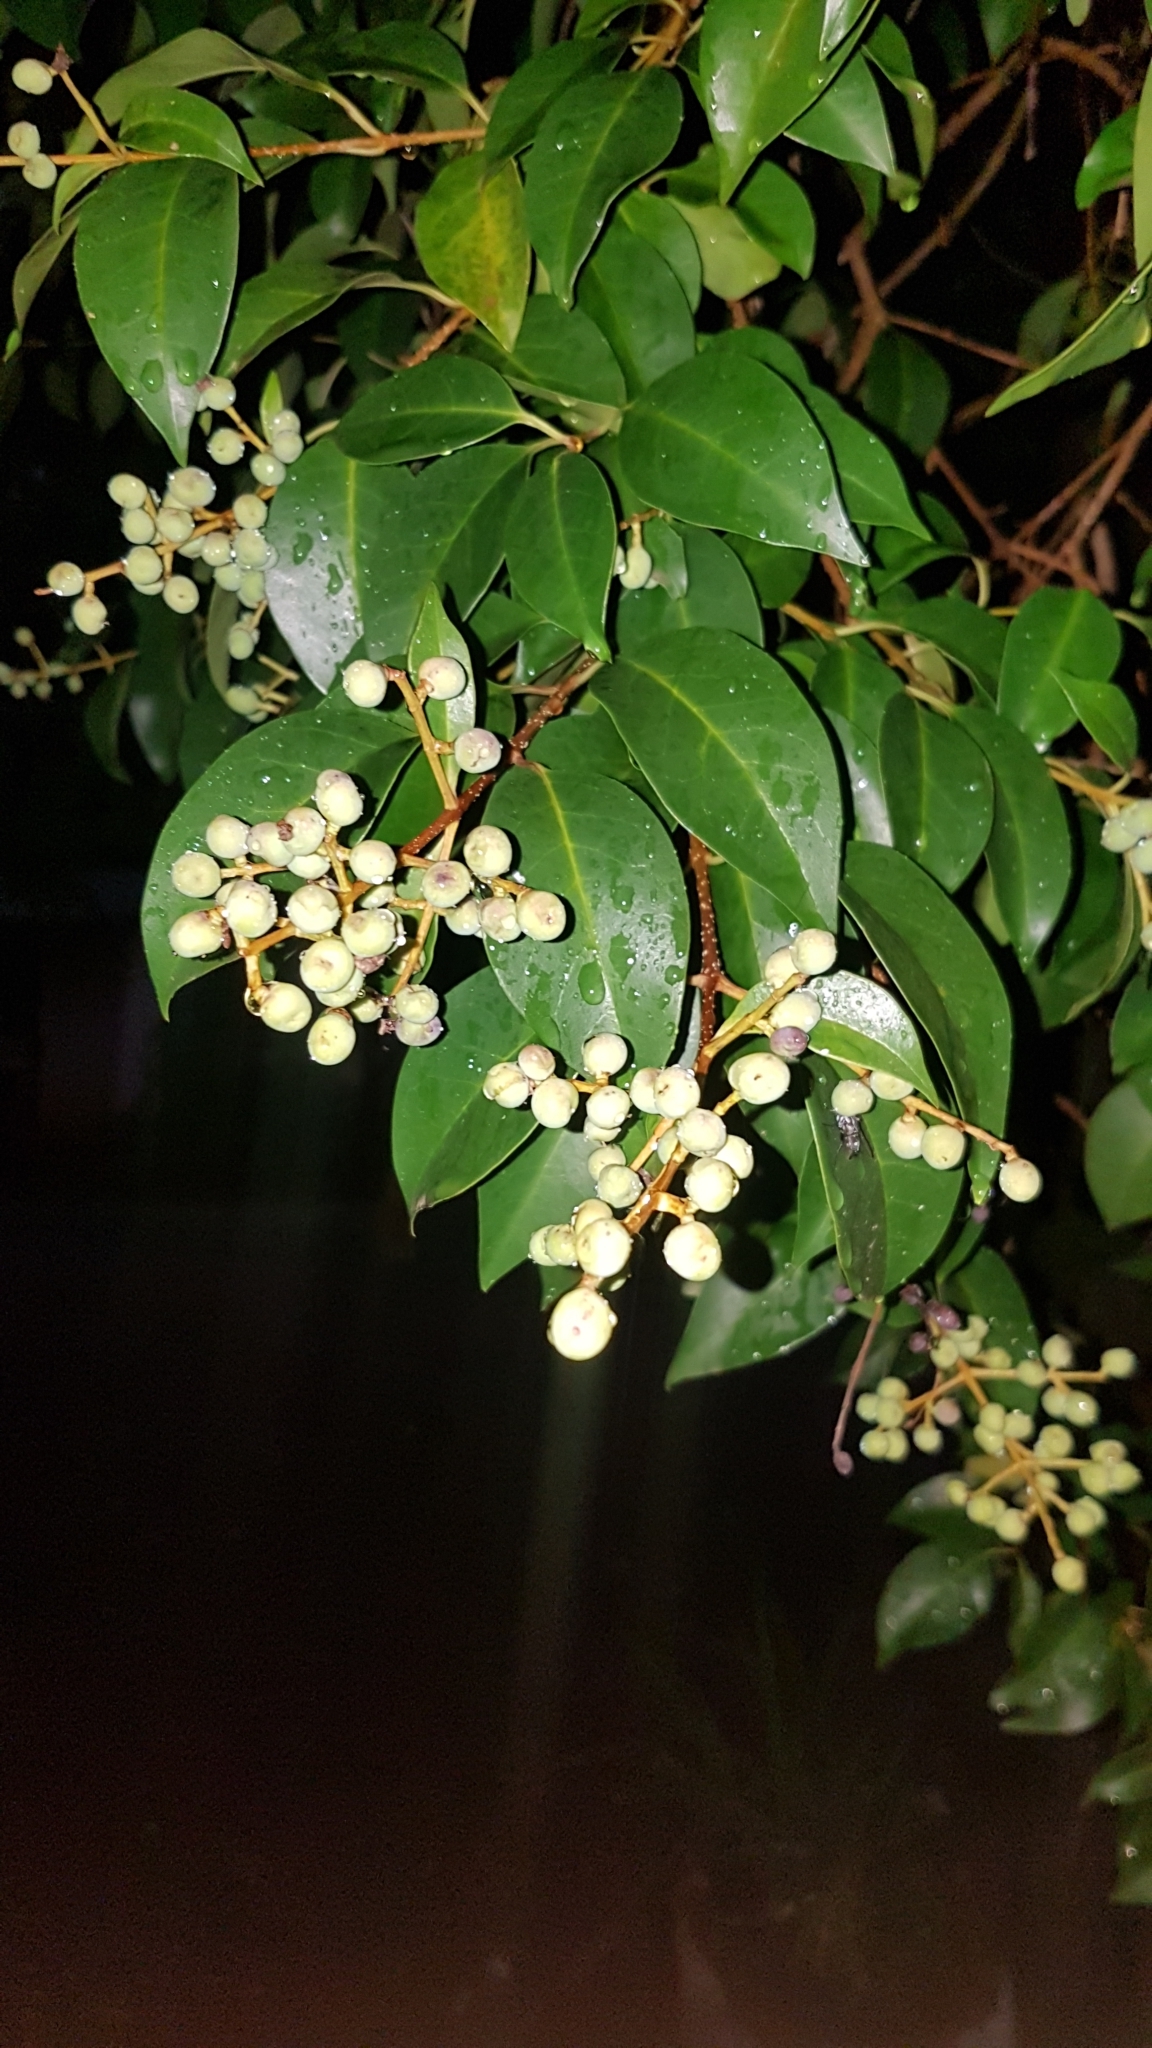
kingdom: Plantae
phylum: Tracheophyta
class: Magnoliopsida
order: Lamiales
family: Oleaceae
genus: Ligustrum
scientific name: Ligustrum lucidum
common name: Glossy privet
